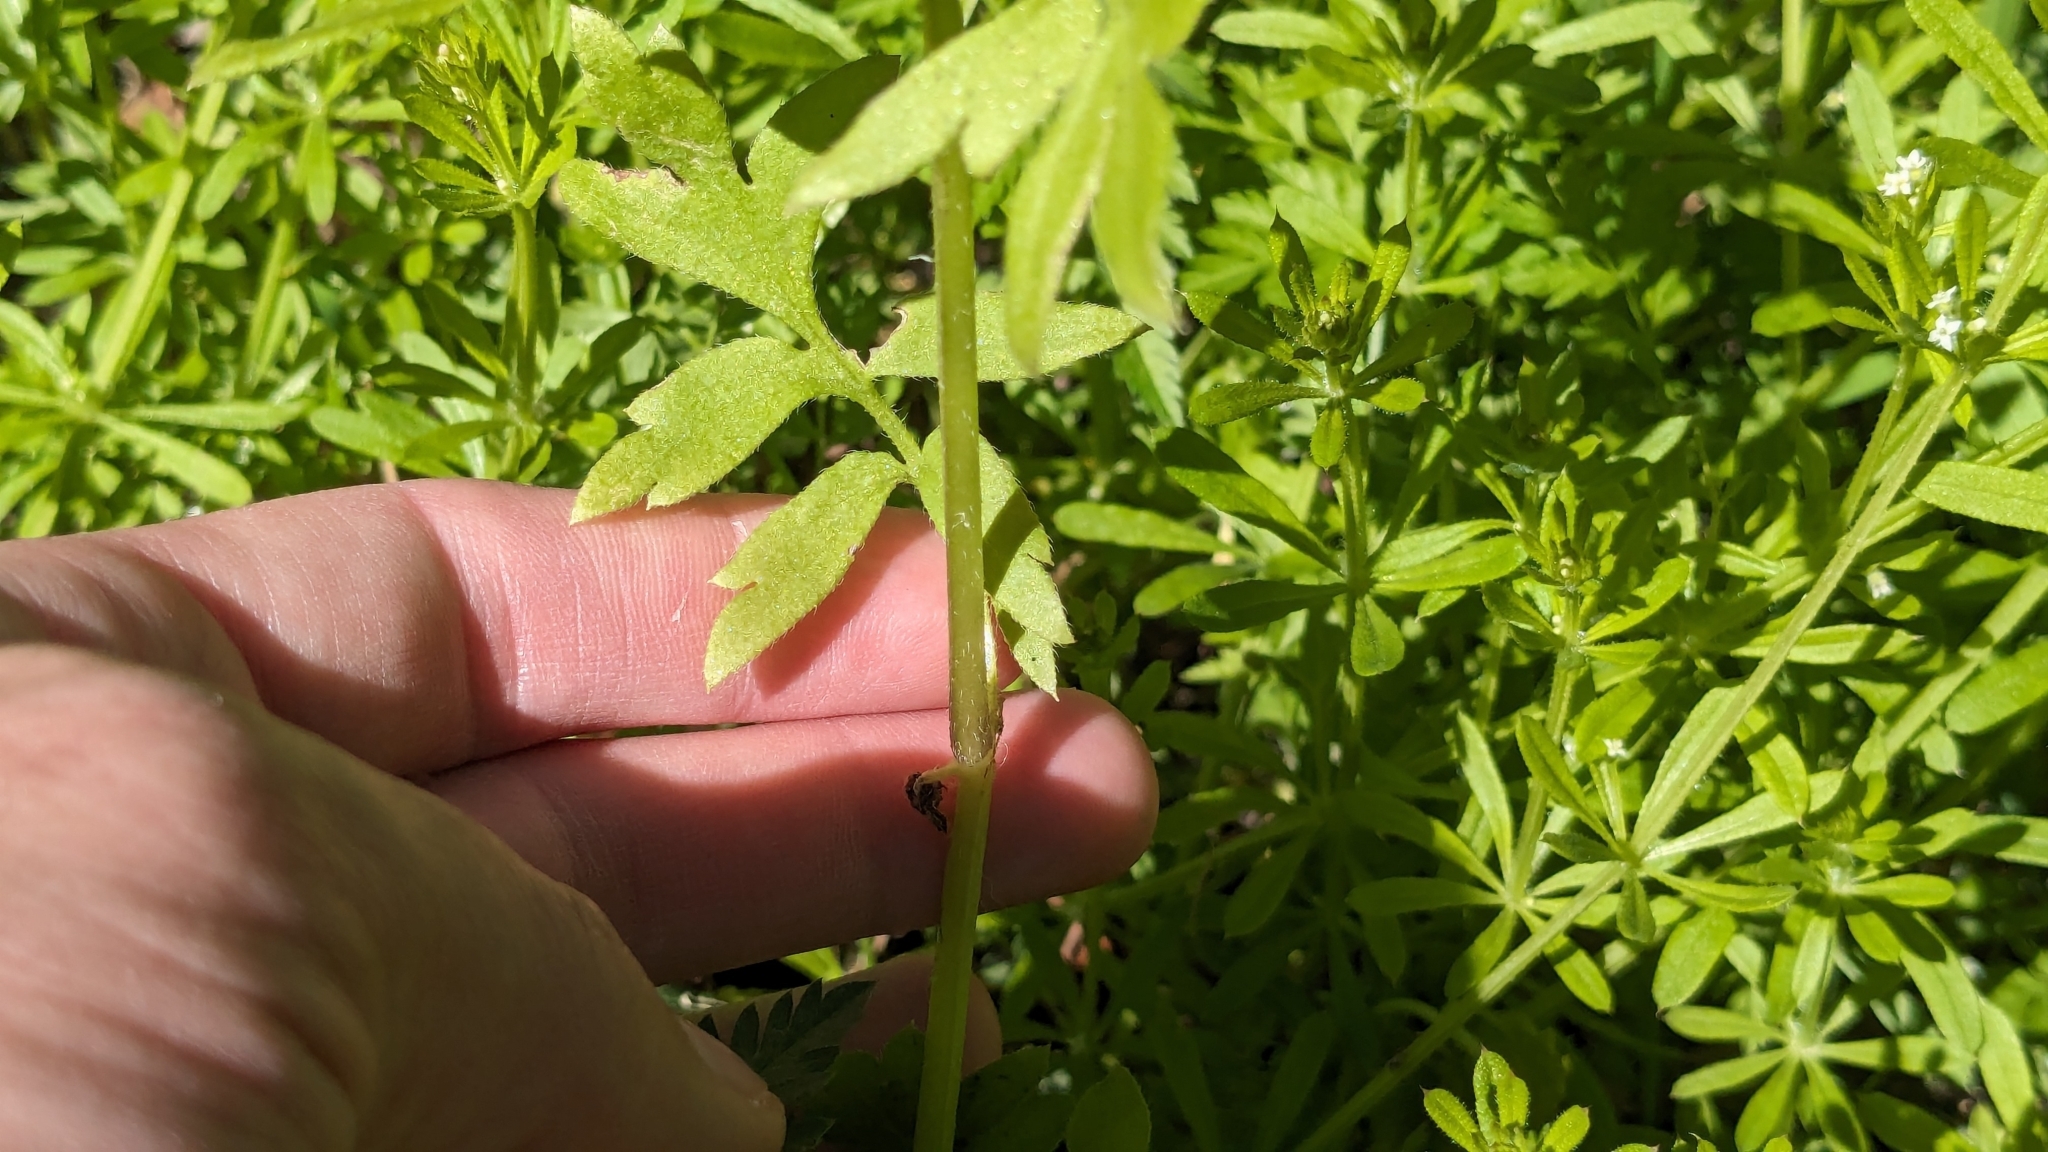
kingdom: Plantae
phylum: Tracheophyta
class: Magnoliopsida
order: Boraginales
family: Hydrophyllaceae
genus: Nemophila
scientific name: Nemophila phacelioides
